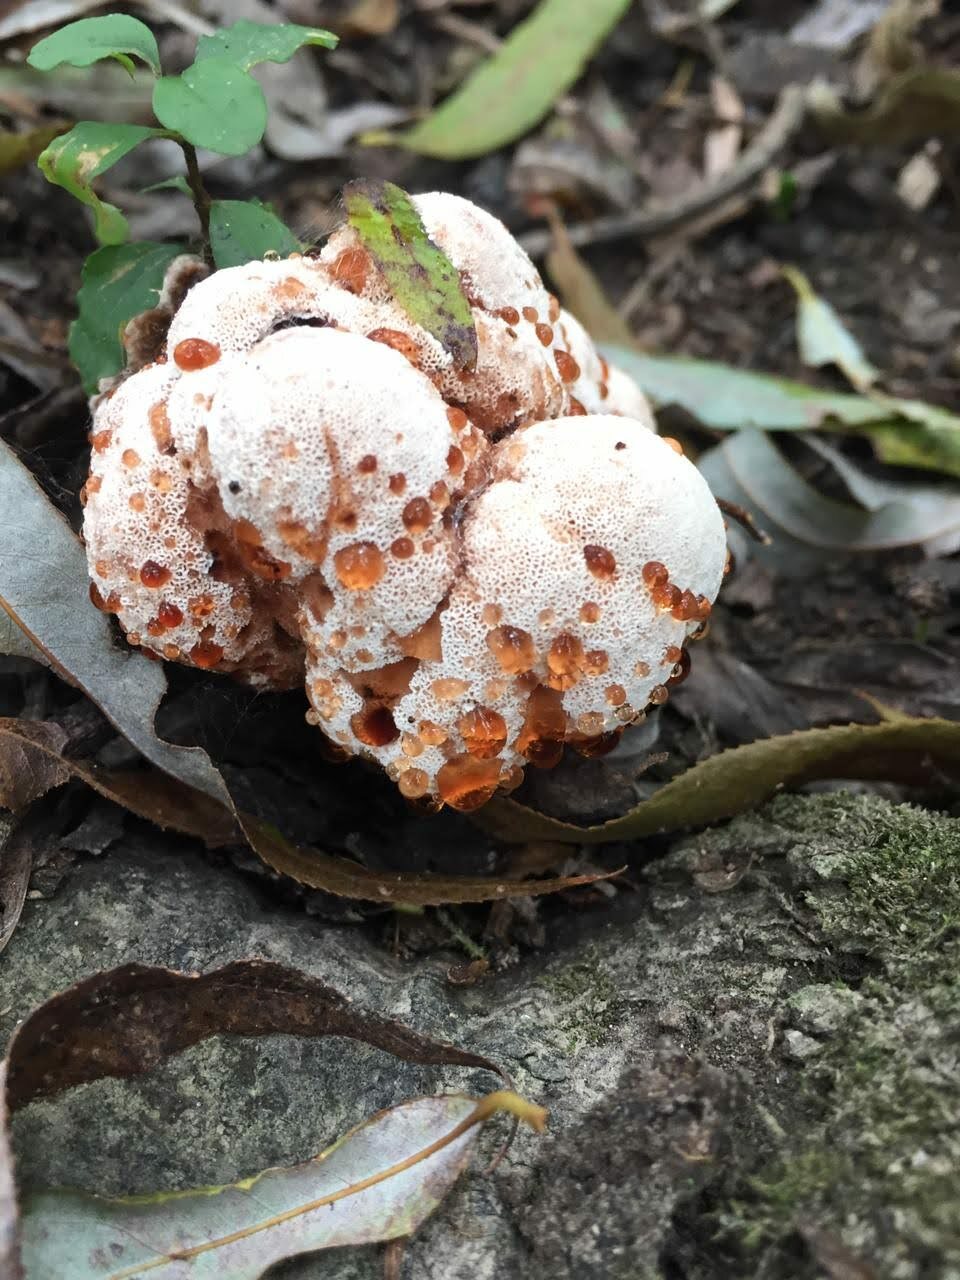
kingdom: Fungi
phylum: Basidiomycota
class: Agaricomycetes
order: Polyporales
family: Podoscyphaceae
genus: Abortiporus
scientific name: Abortiporus biennis
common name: Blushing rosette
